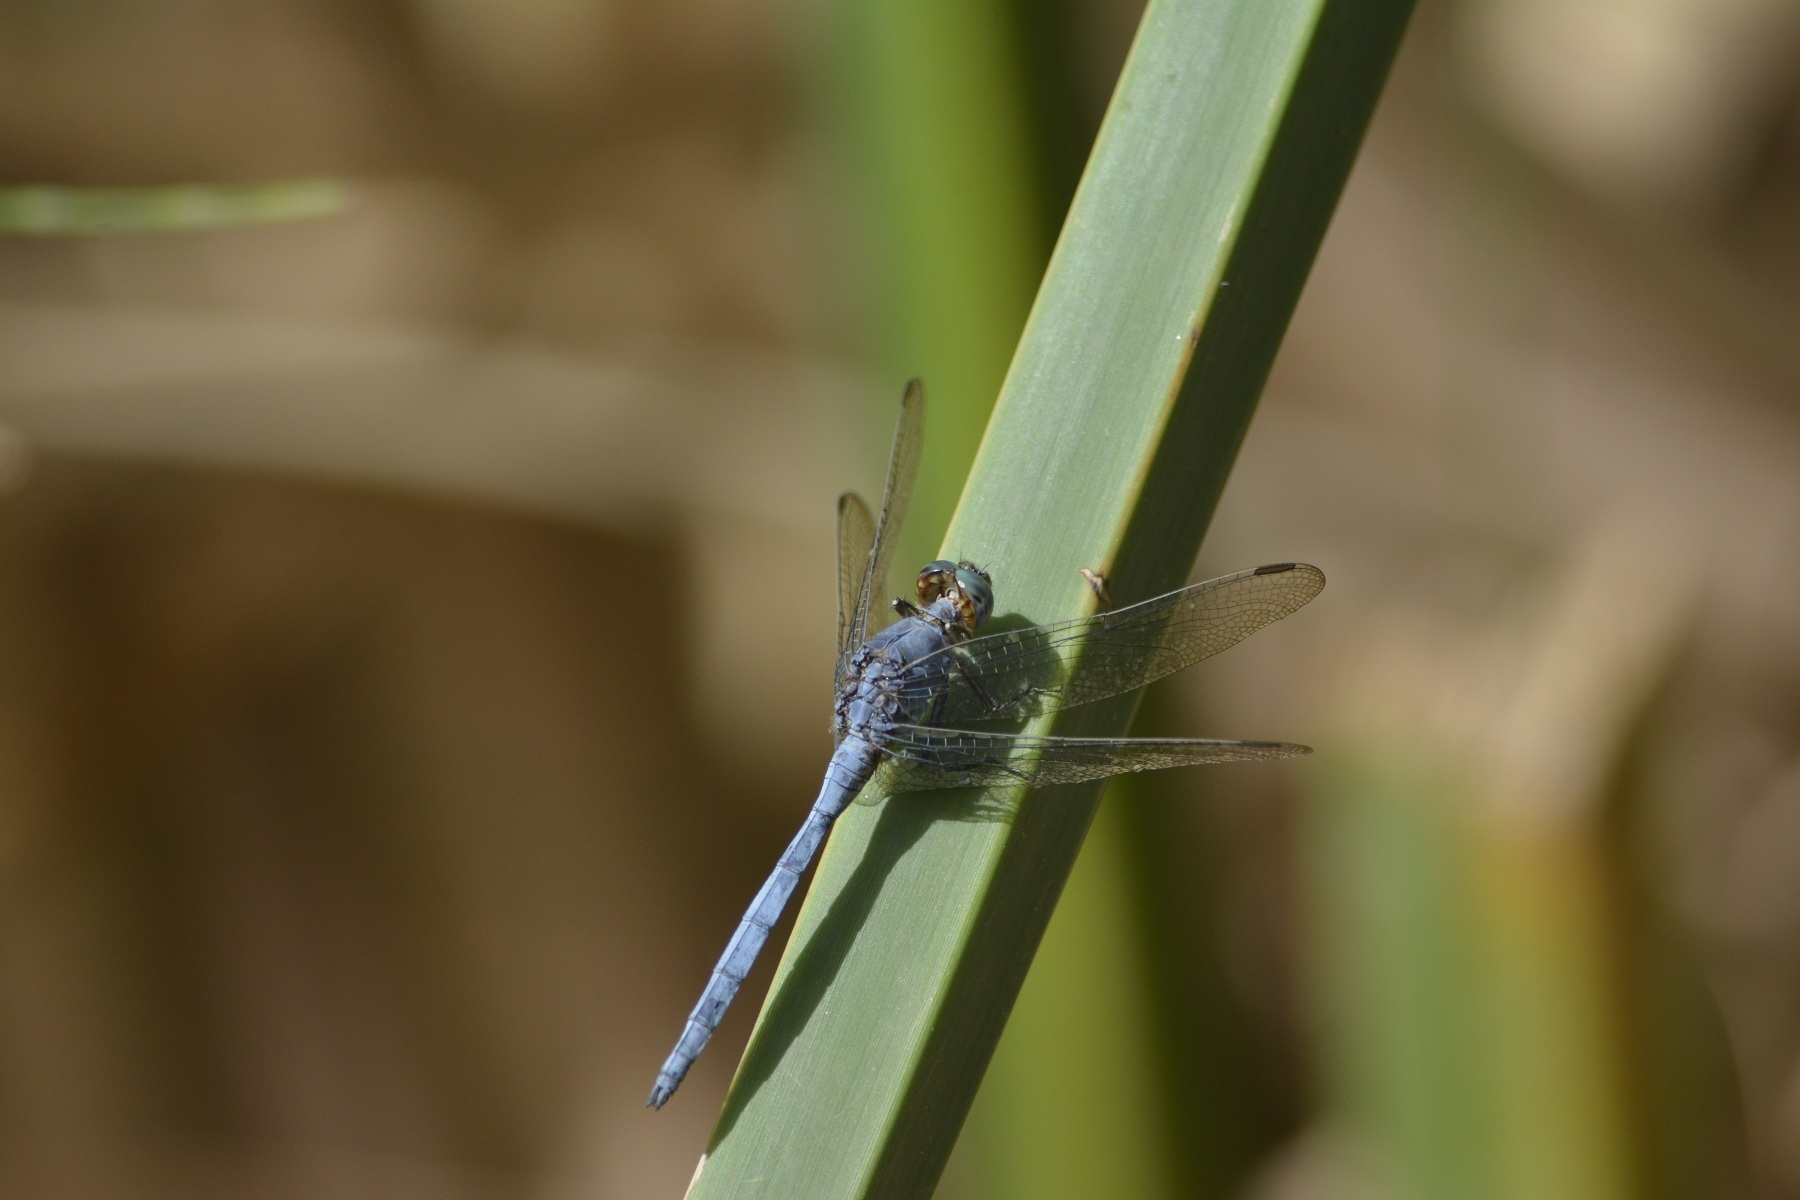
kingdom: Animalia
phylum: Arthropoda
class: Insecta
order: Odonata
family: Libellulidae
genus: Orthetrum
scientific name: Orthetrum chrysostigma
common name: Epaulet skimmer
